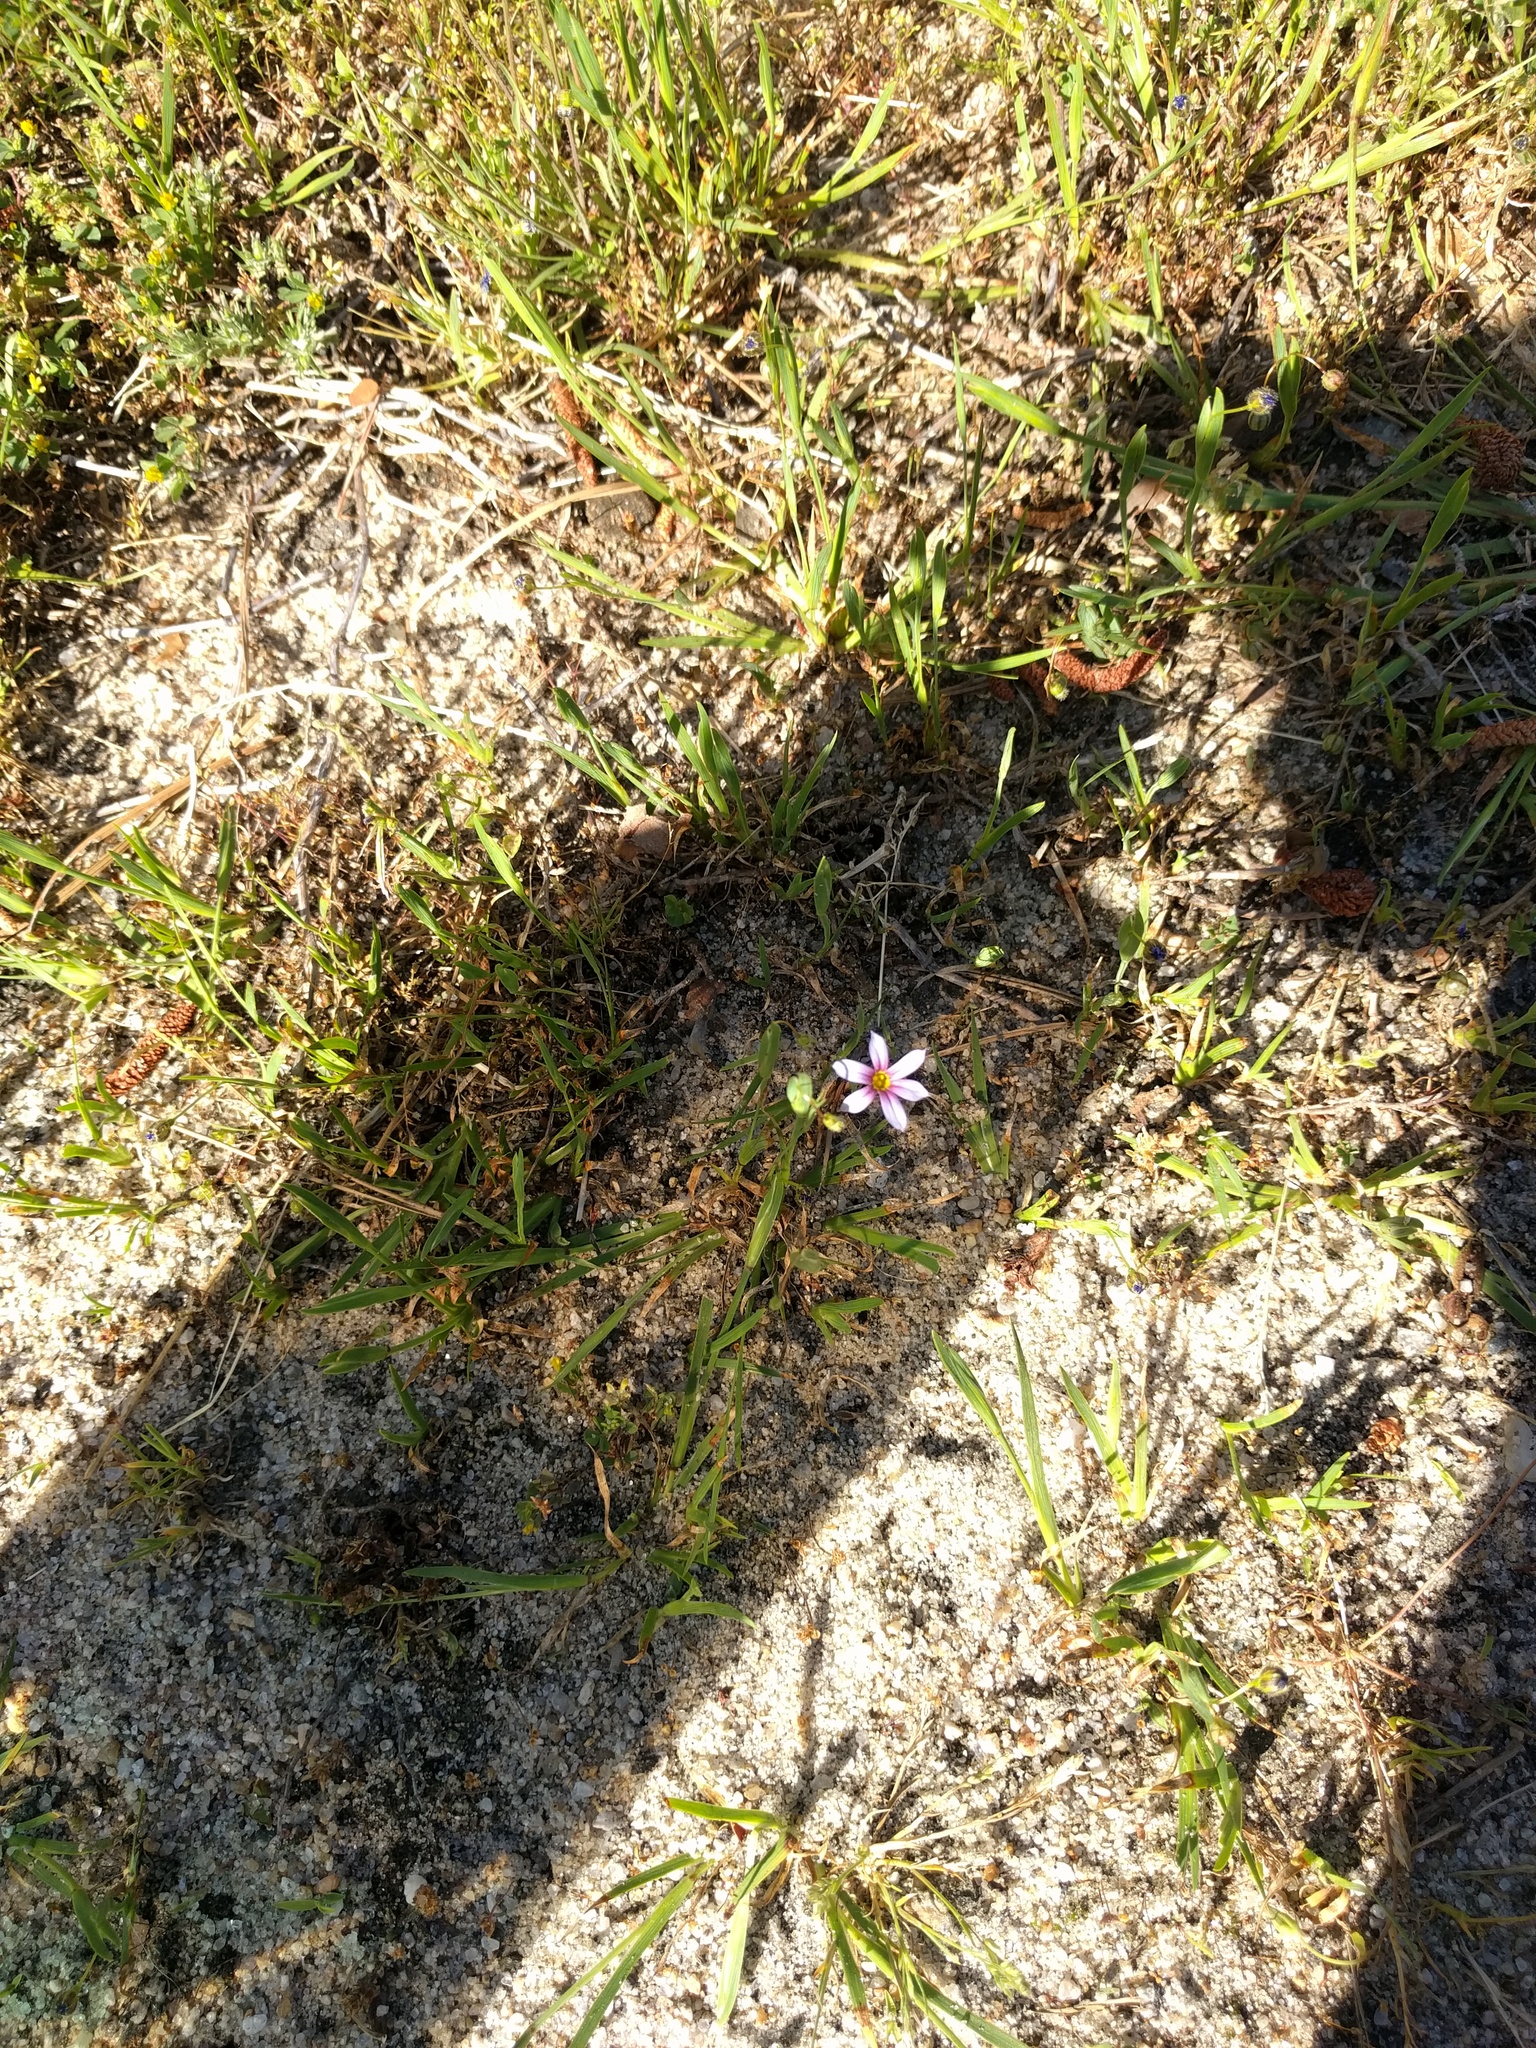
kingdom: Plantae
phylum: Tracheophyta
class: Liliopsida
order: Asparagales
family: Iridaceae
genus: Sisyrinchium
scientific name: Sisyrinchium micranthum
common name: Bermuda pigroot
